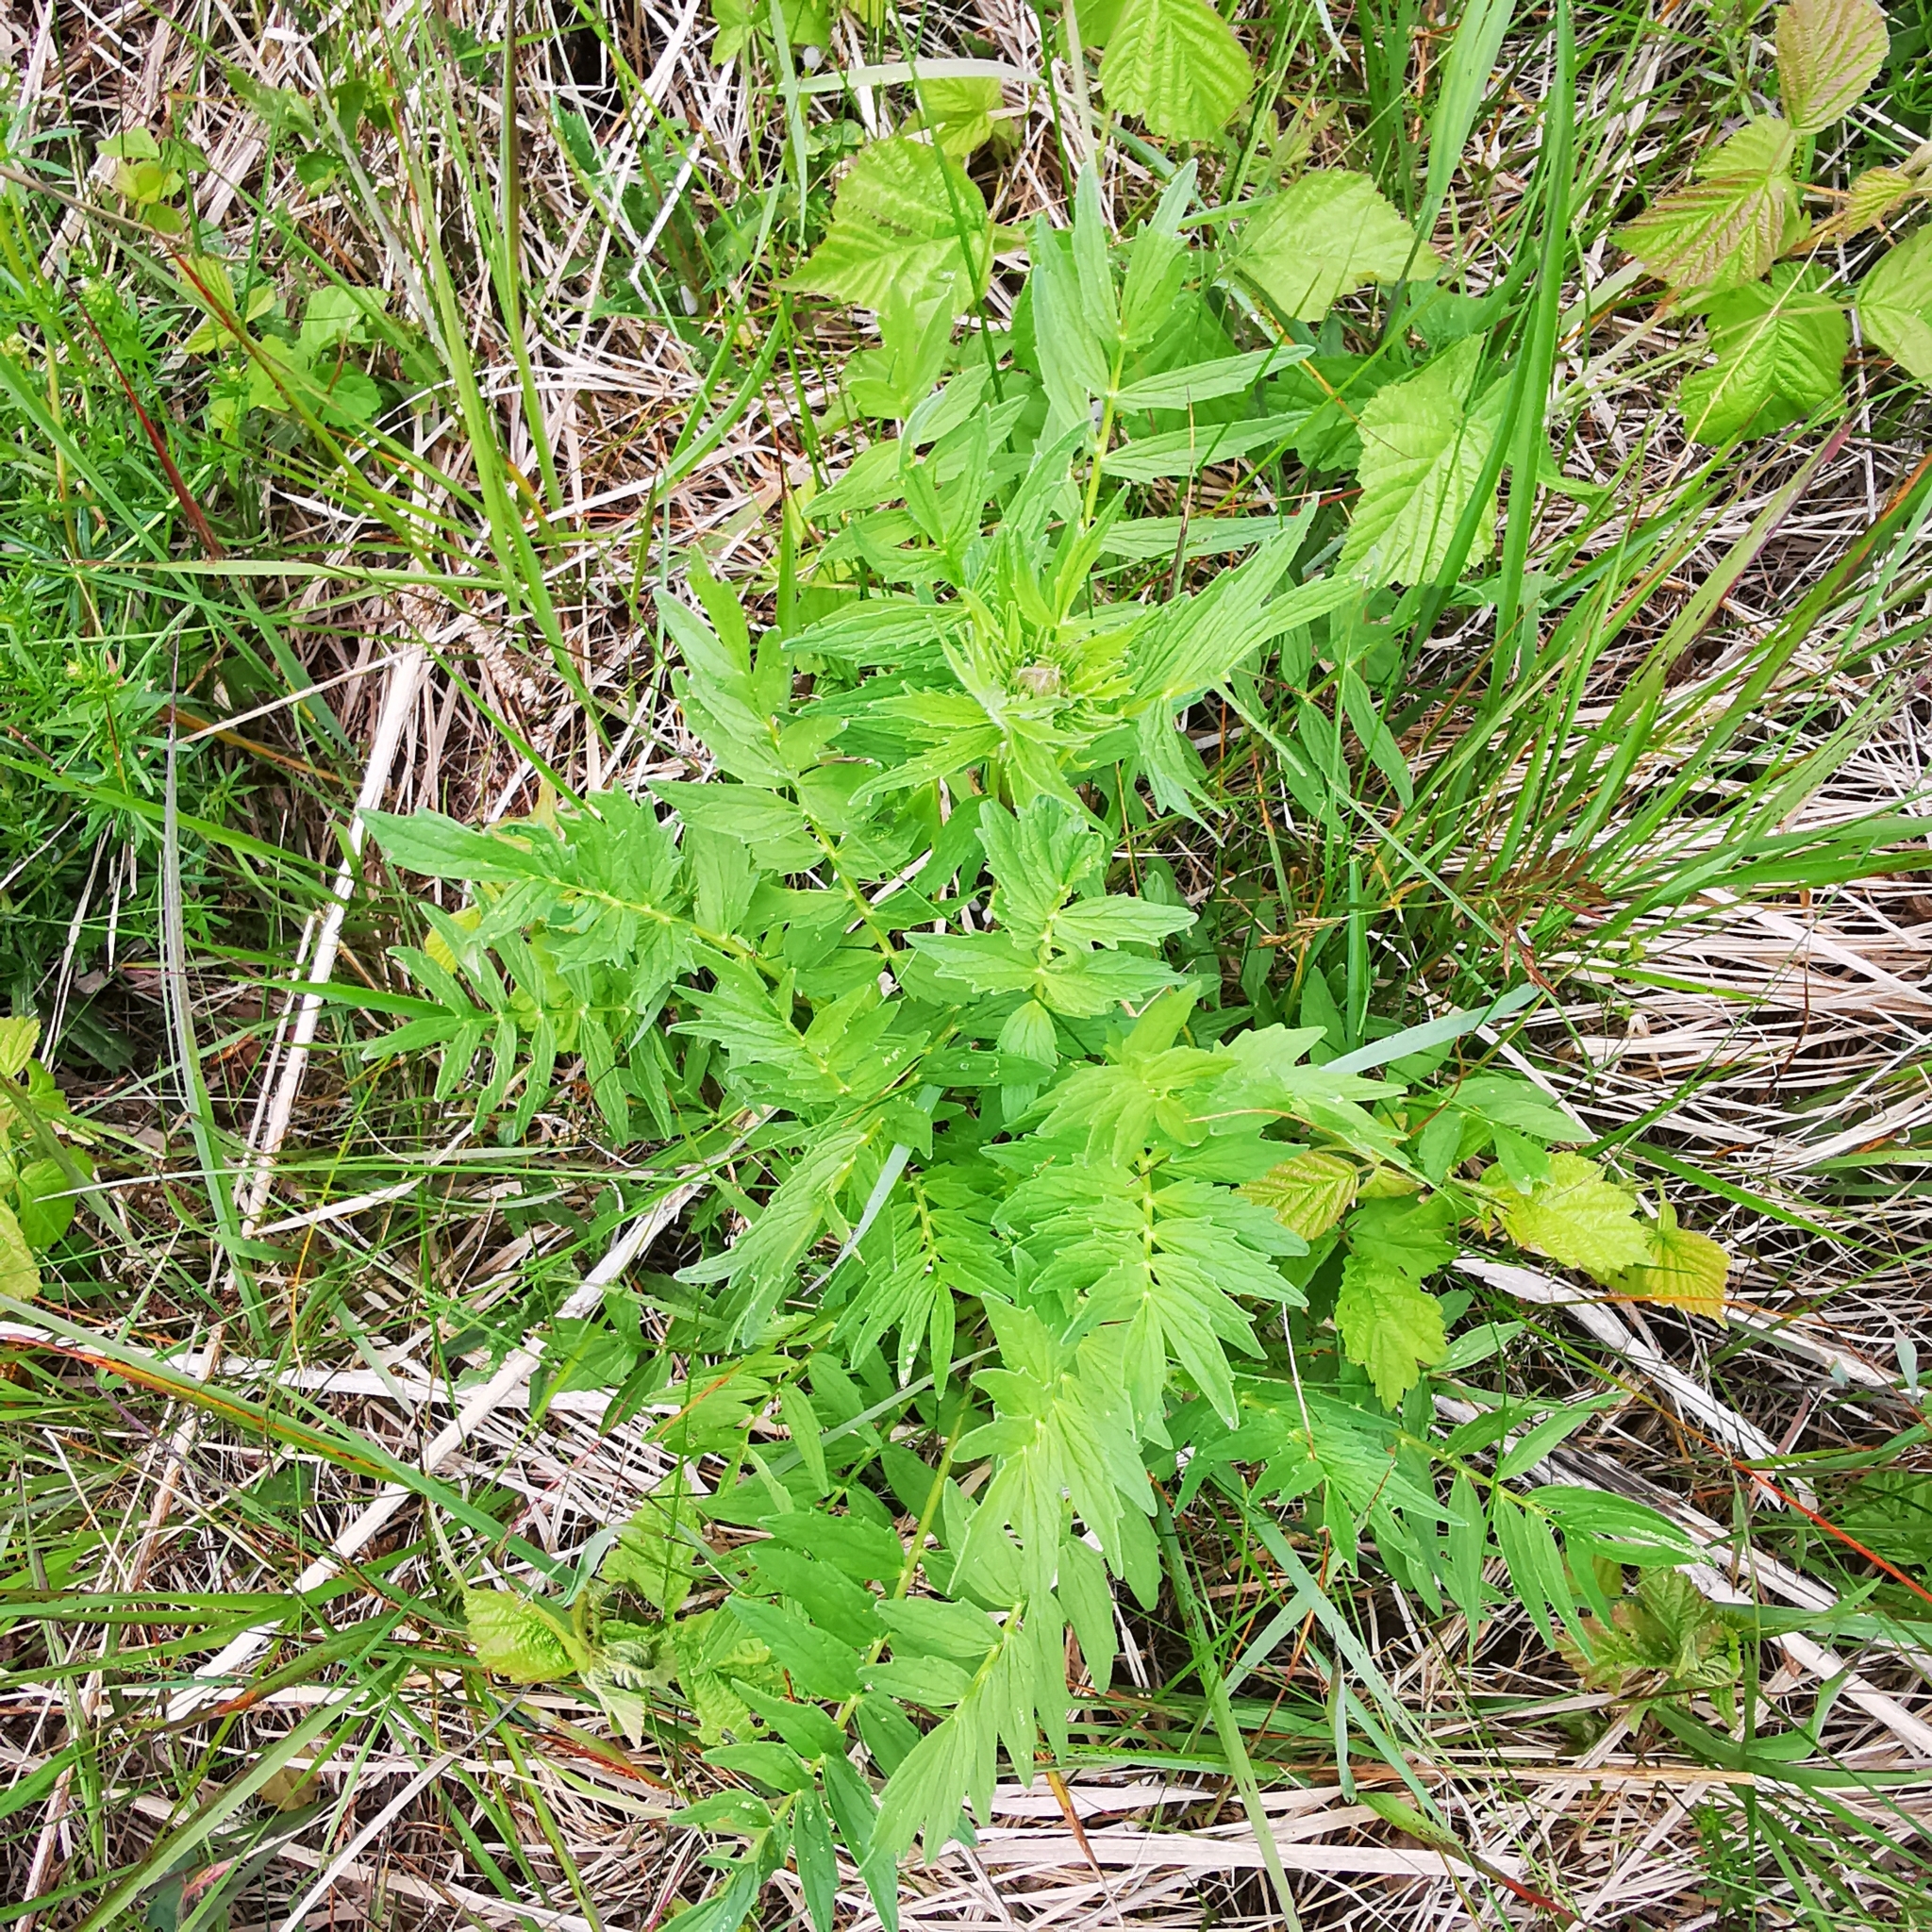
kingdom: Plantae
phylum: Tracheophyta
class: Magnoliopsida
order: Dipsacales
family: Caprifoliaceae
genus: Valeriana
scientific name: Valeriana officinalis
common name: Common valerian
